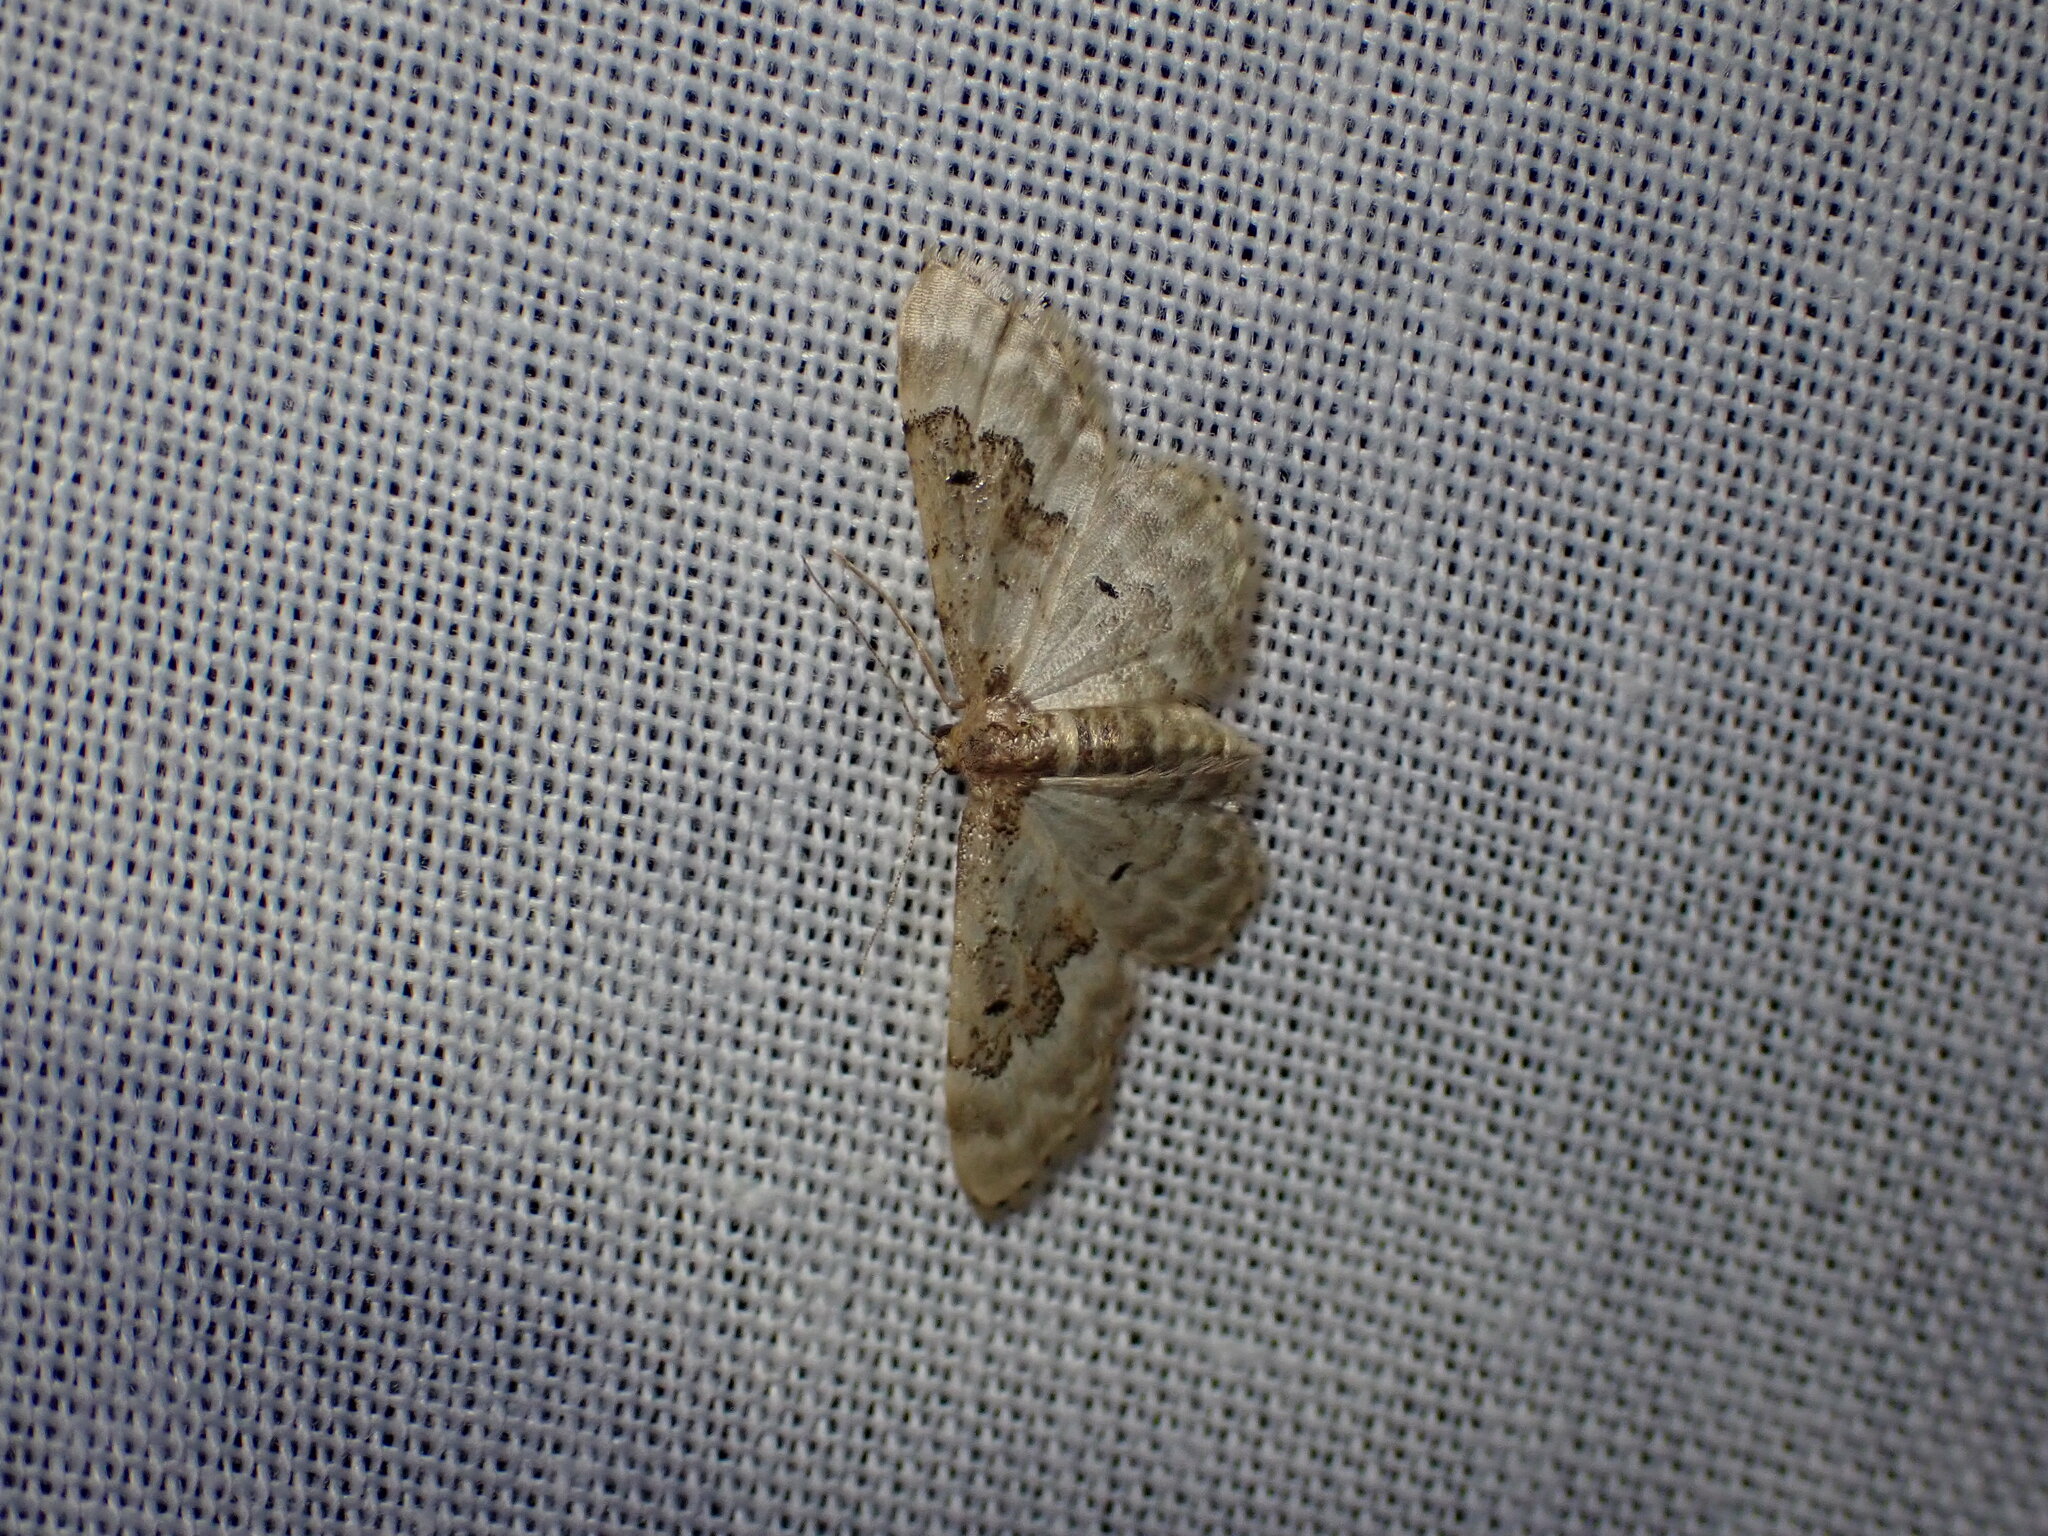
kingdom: Animalia
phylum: Arthropoda
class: Insecta
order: Lepidoptera
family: Geometridae
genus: Idaea
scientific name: Idaea rusticata
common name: Least carpet
